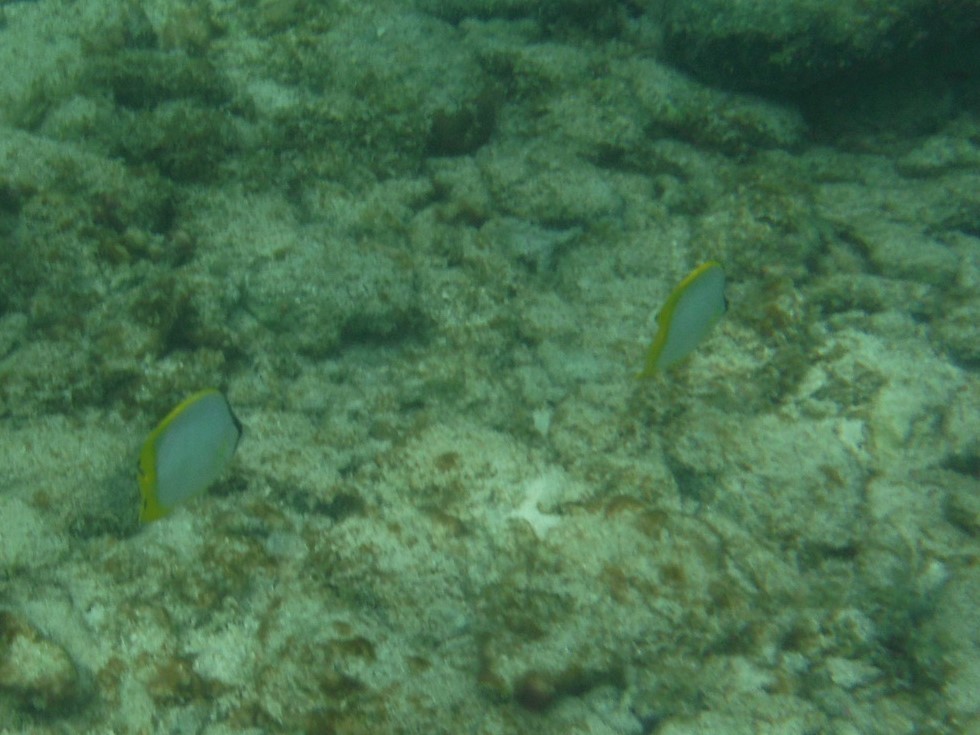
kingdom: Animalia
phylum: Chordata
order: Perciformes
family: Chaetodontidae
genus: Chaetodon
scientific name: Chaetodon ocellatus
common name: Spotfin butterflyfish
